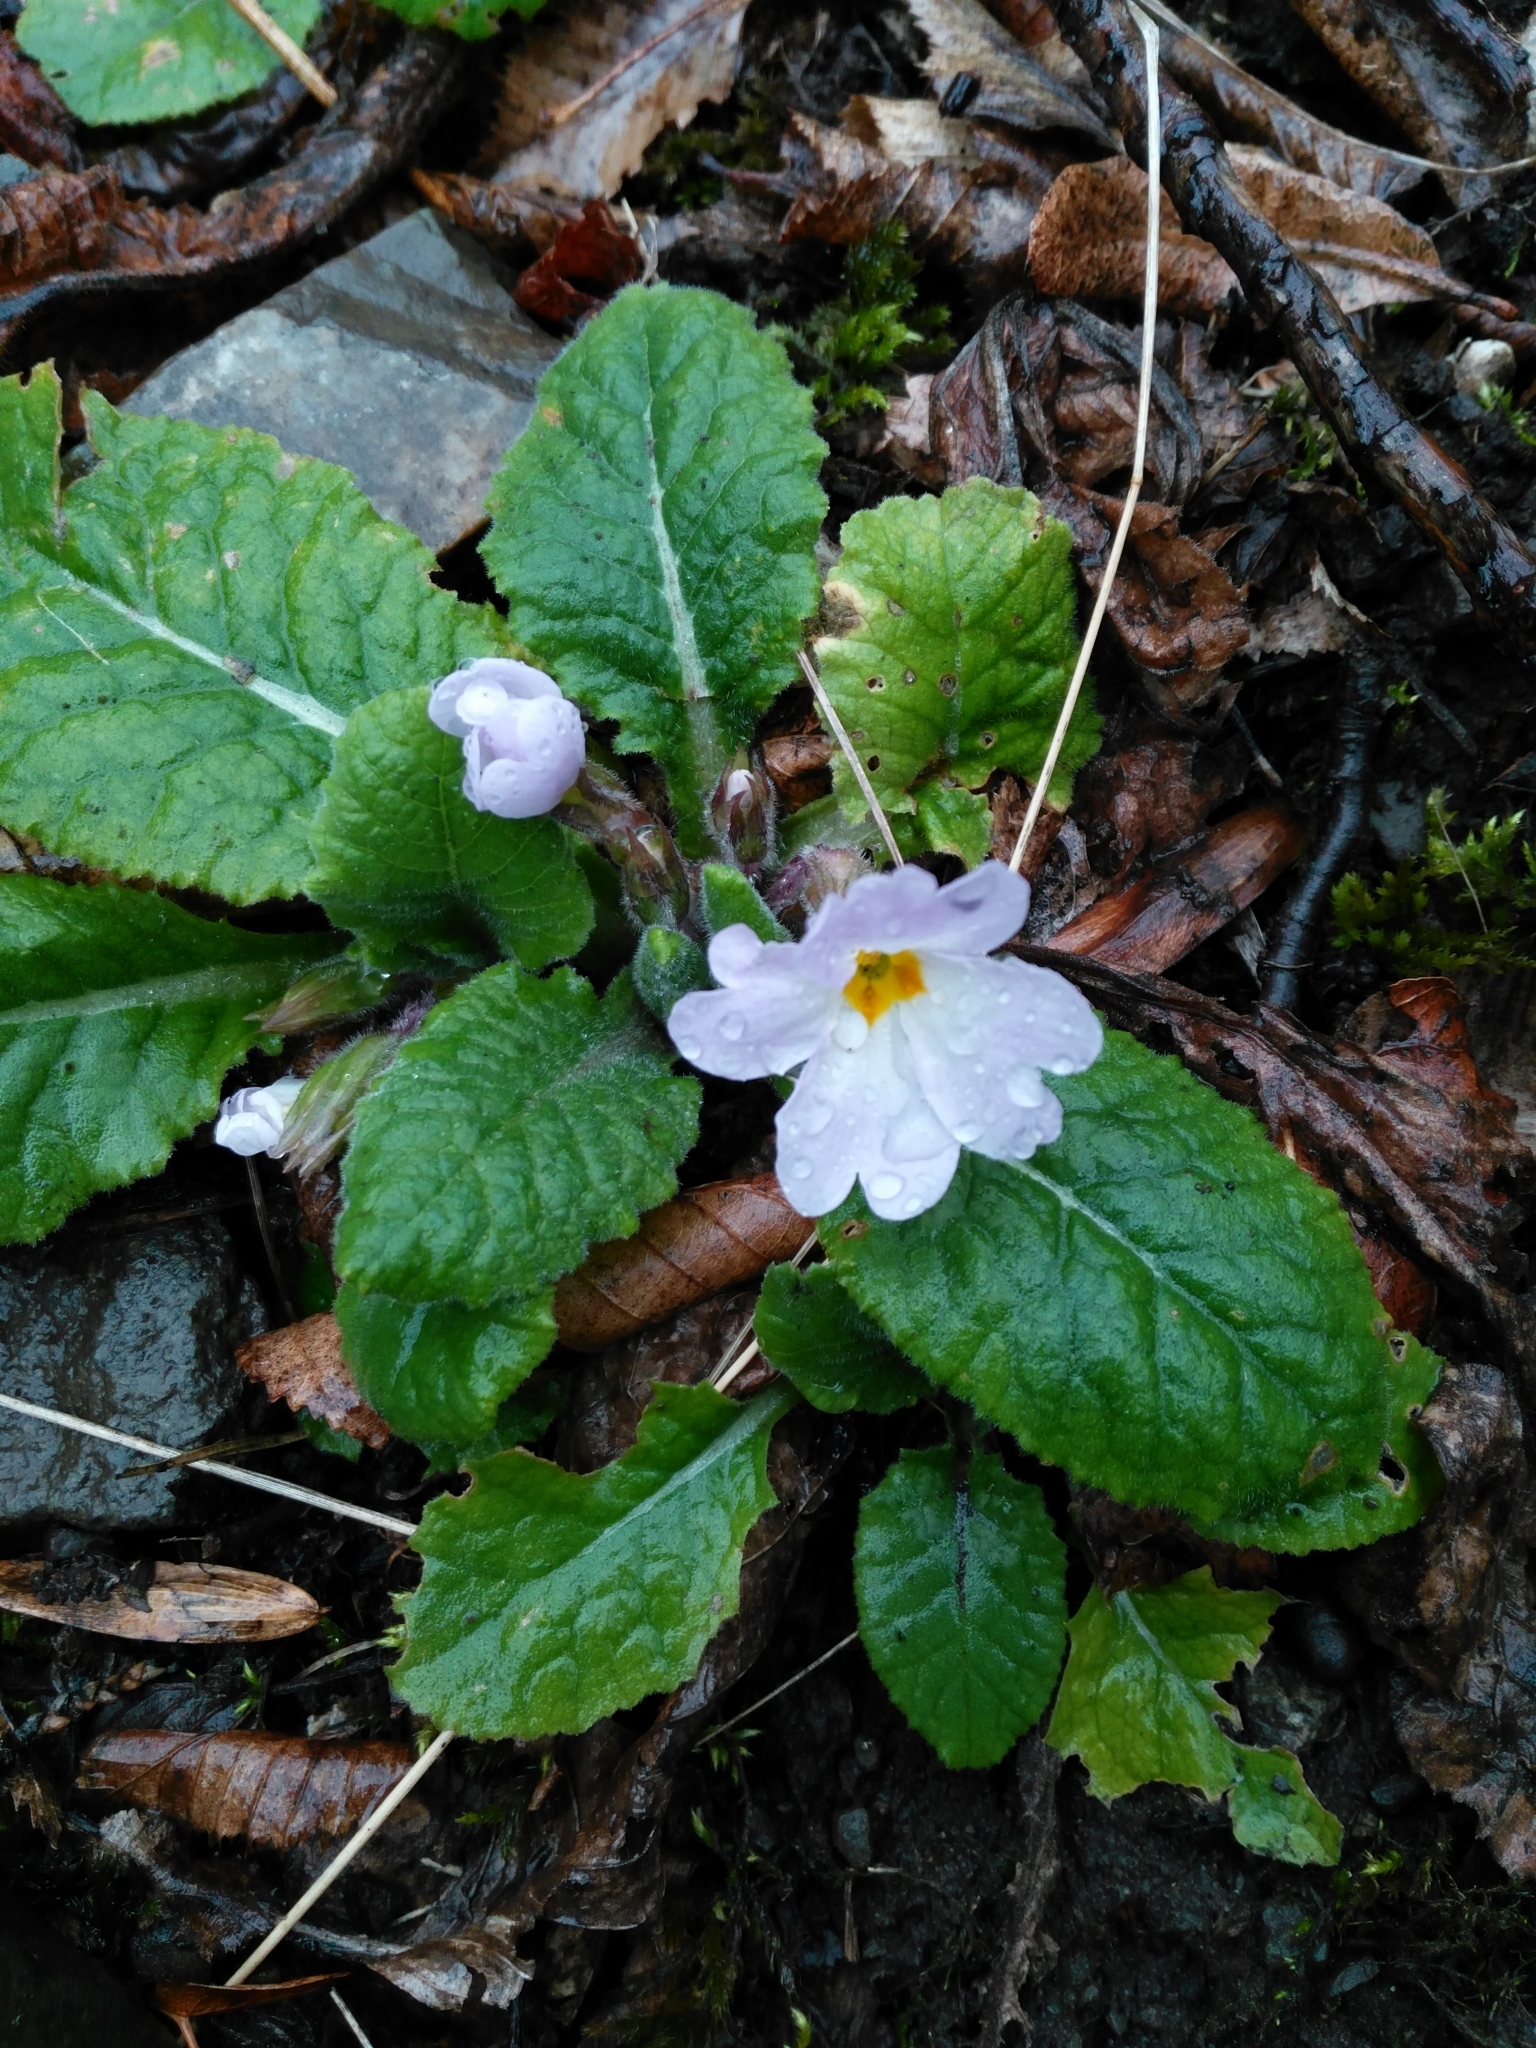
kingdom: Plantae
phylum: Tracheophyta
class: Magnoliopsida
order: Ericales
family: Primulaceae
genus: Primula
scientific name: Primula vulgaris
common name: Primrose
